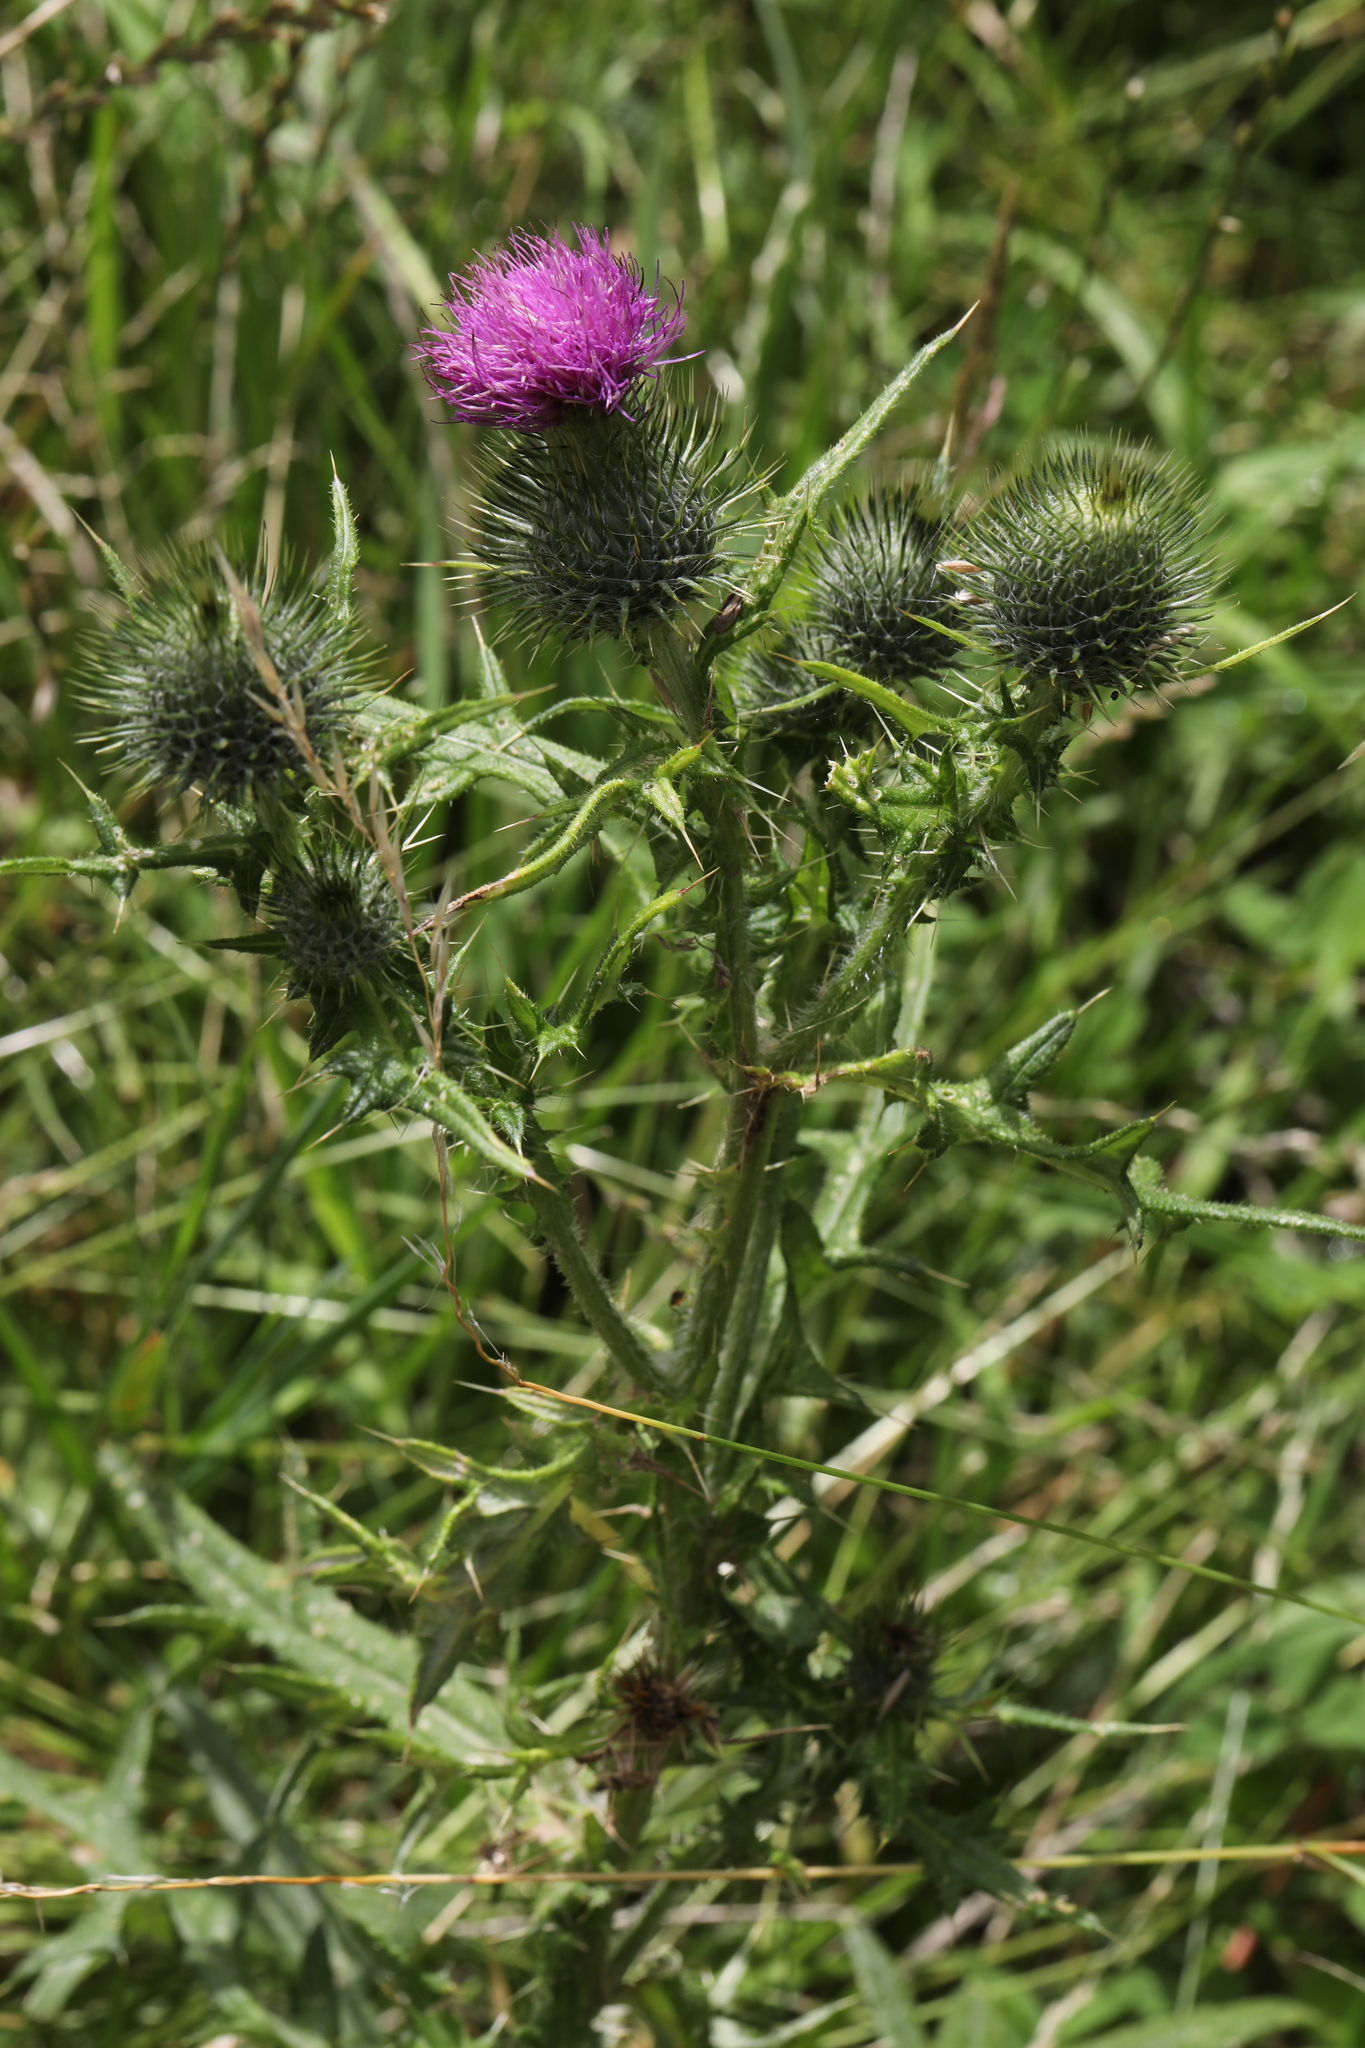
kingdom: Plantae
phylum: Tracheophyta
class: Magnoliopsida
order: Asterales
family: Asteraceae
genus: Cirsium
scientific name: Cirsium vulgare
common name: Bull thistle
